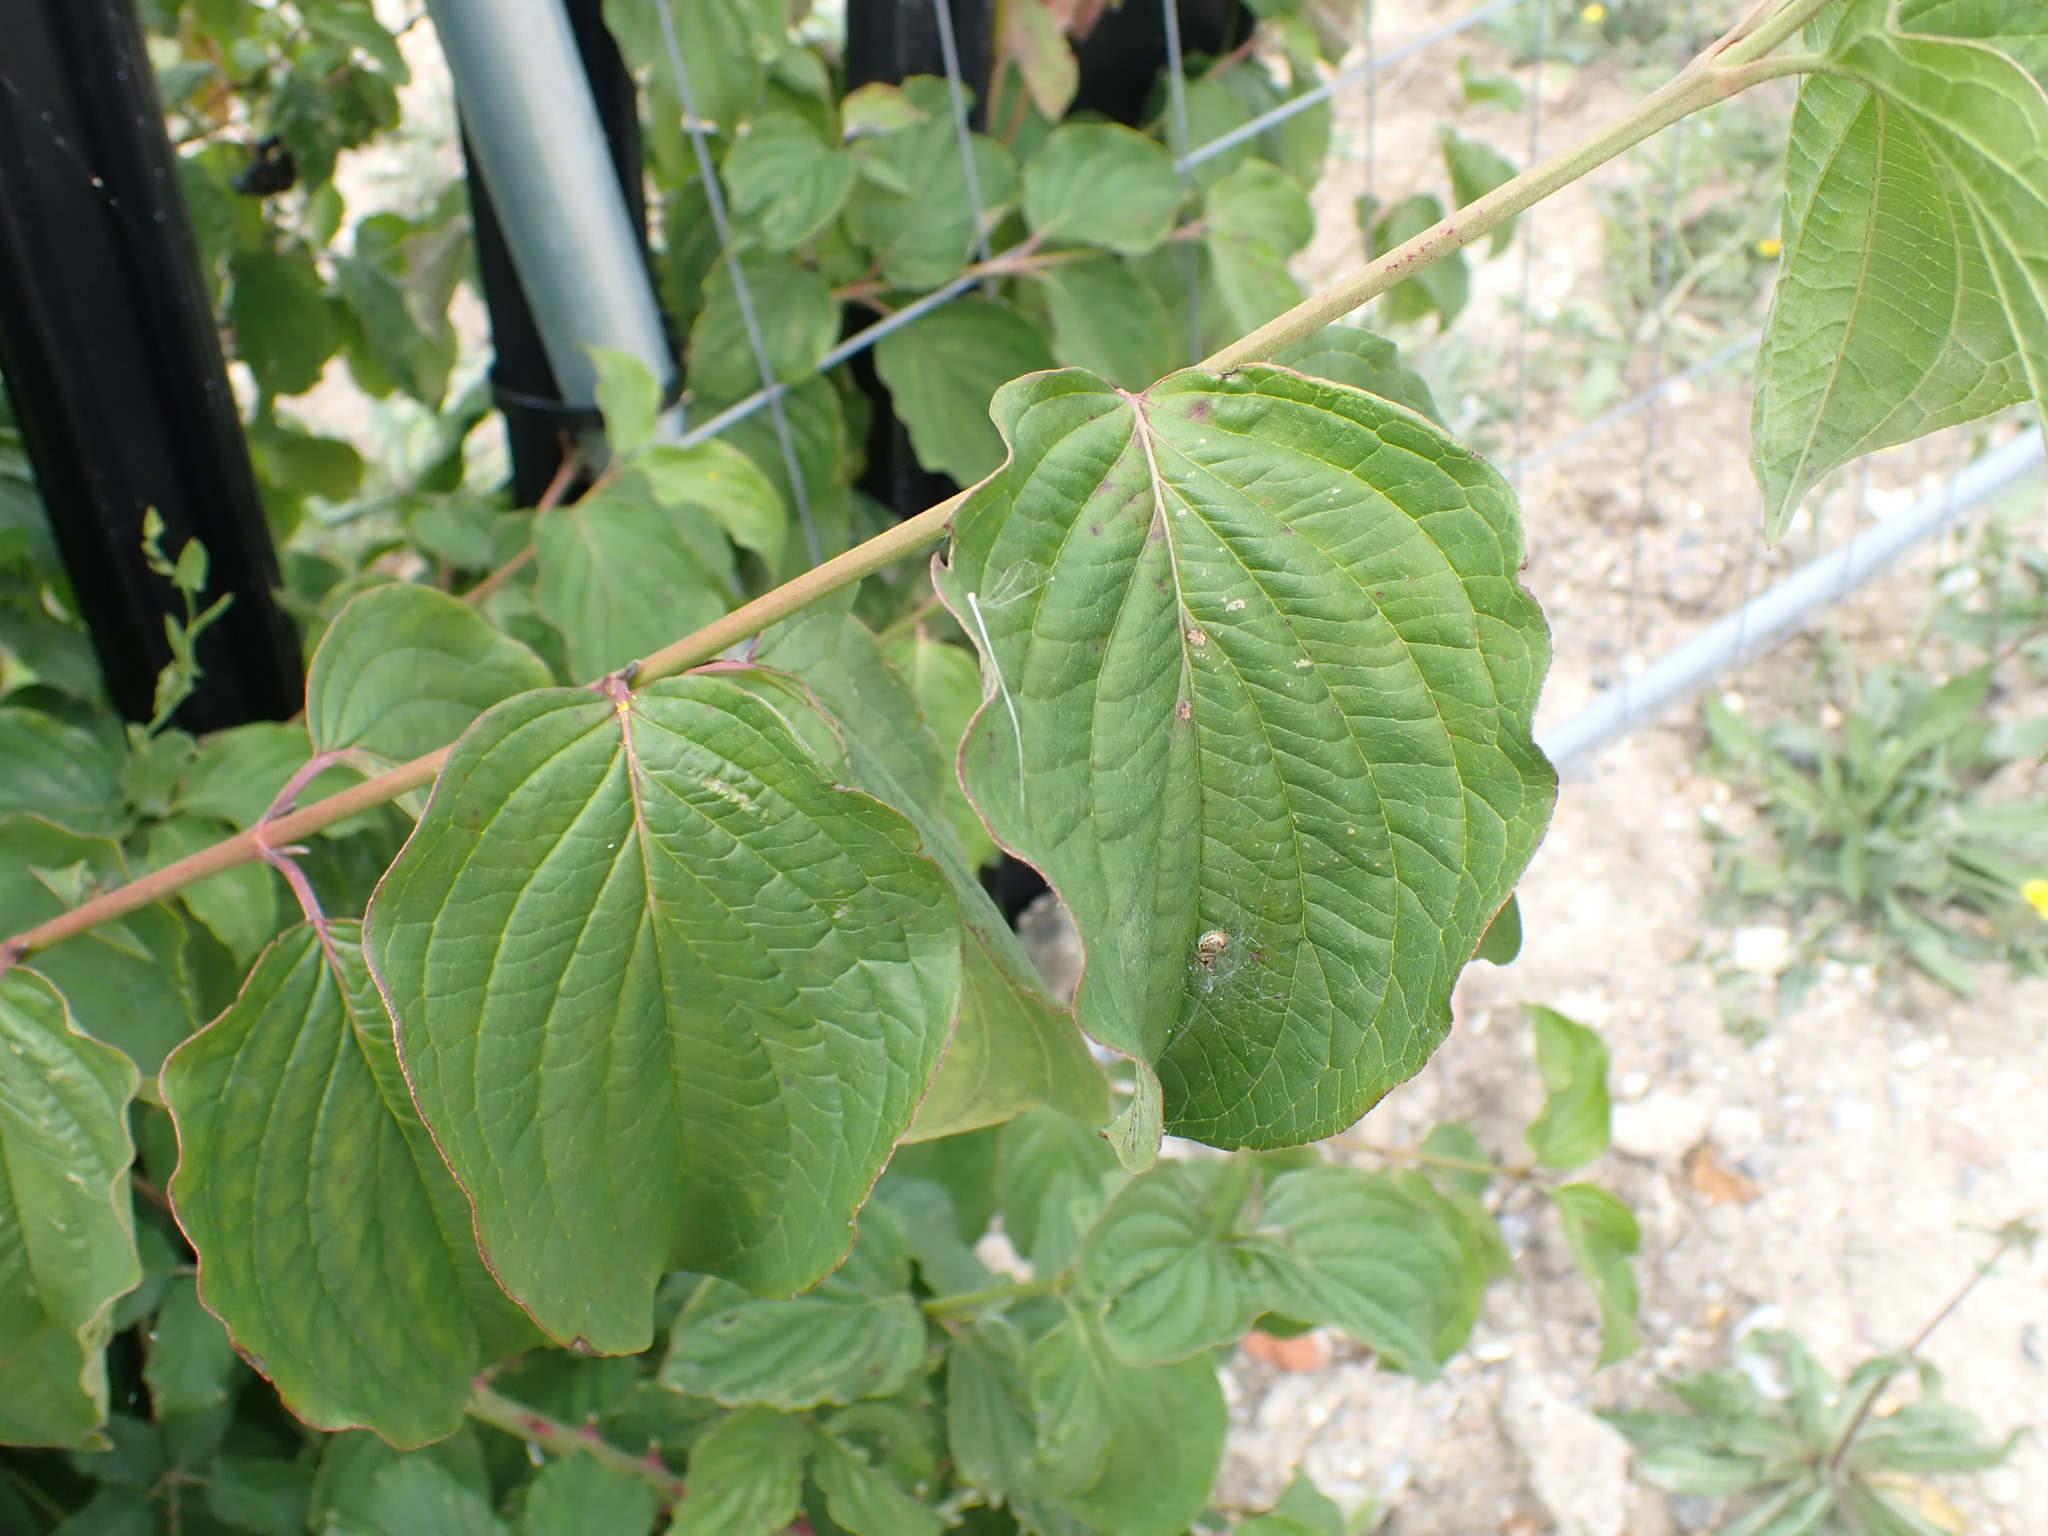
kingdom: Plantae
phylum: Tracheophyta
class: Magnoliopsida
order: Cornales
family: Cornaceae
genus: Cornus
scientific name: Cornus sanguinea
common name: Dogwood
